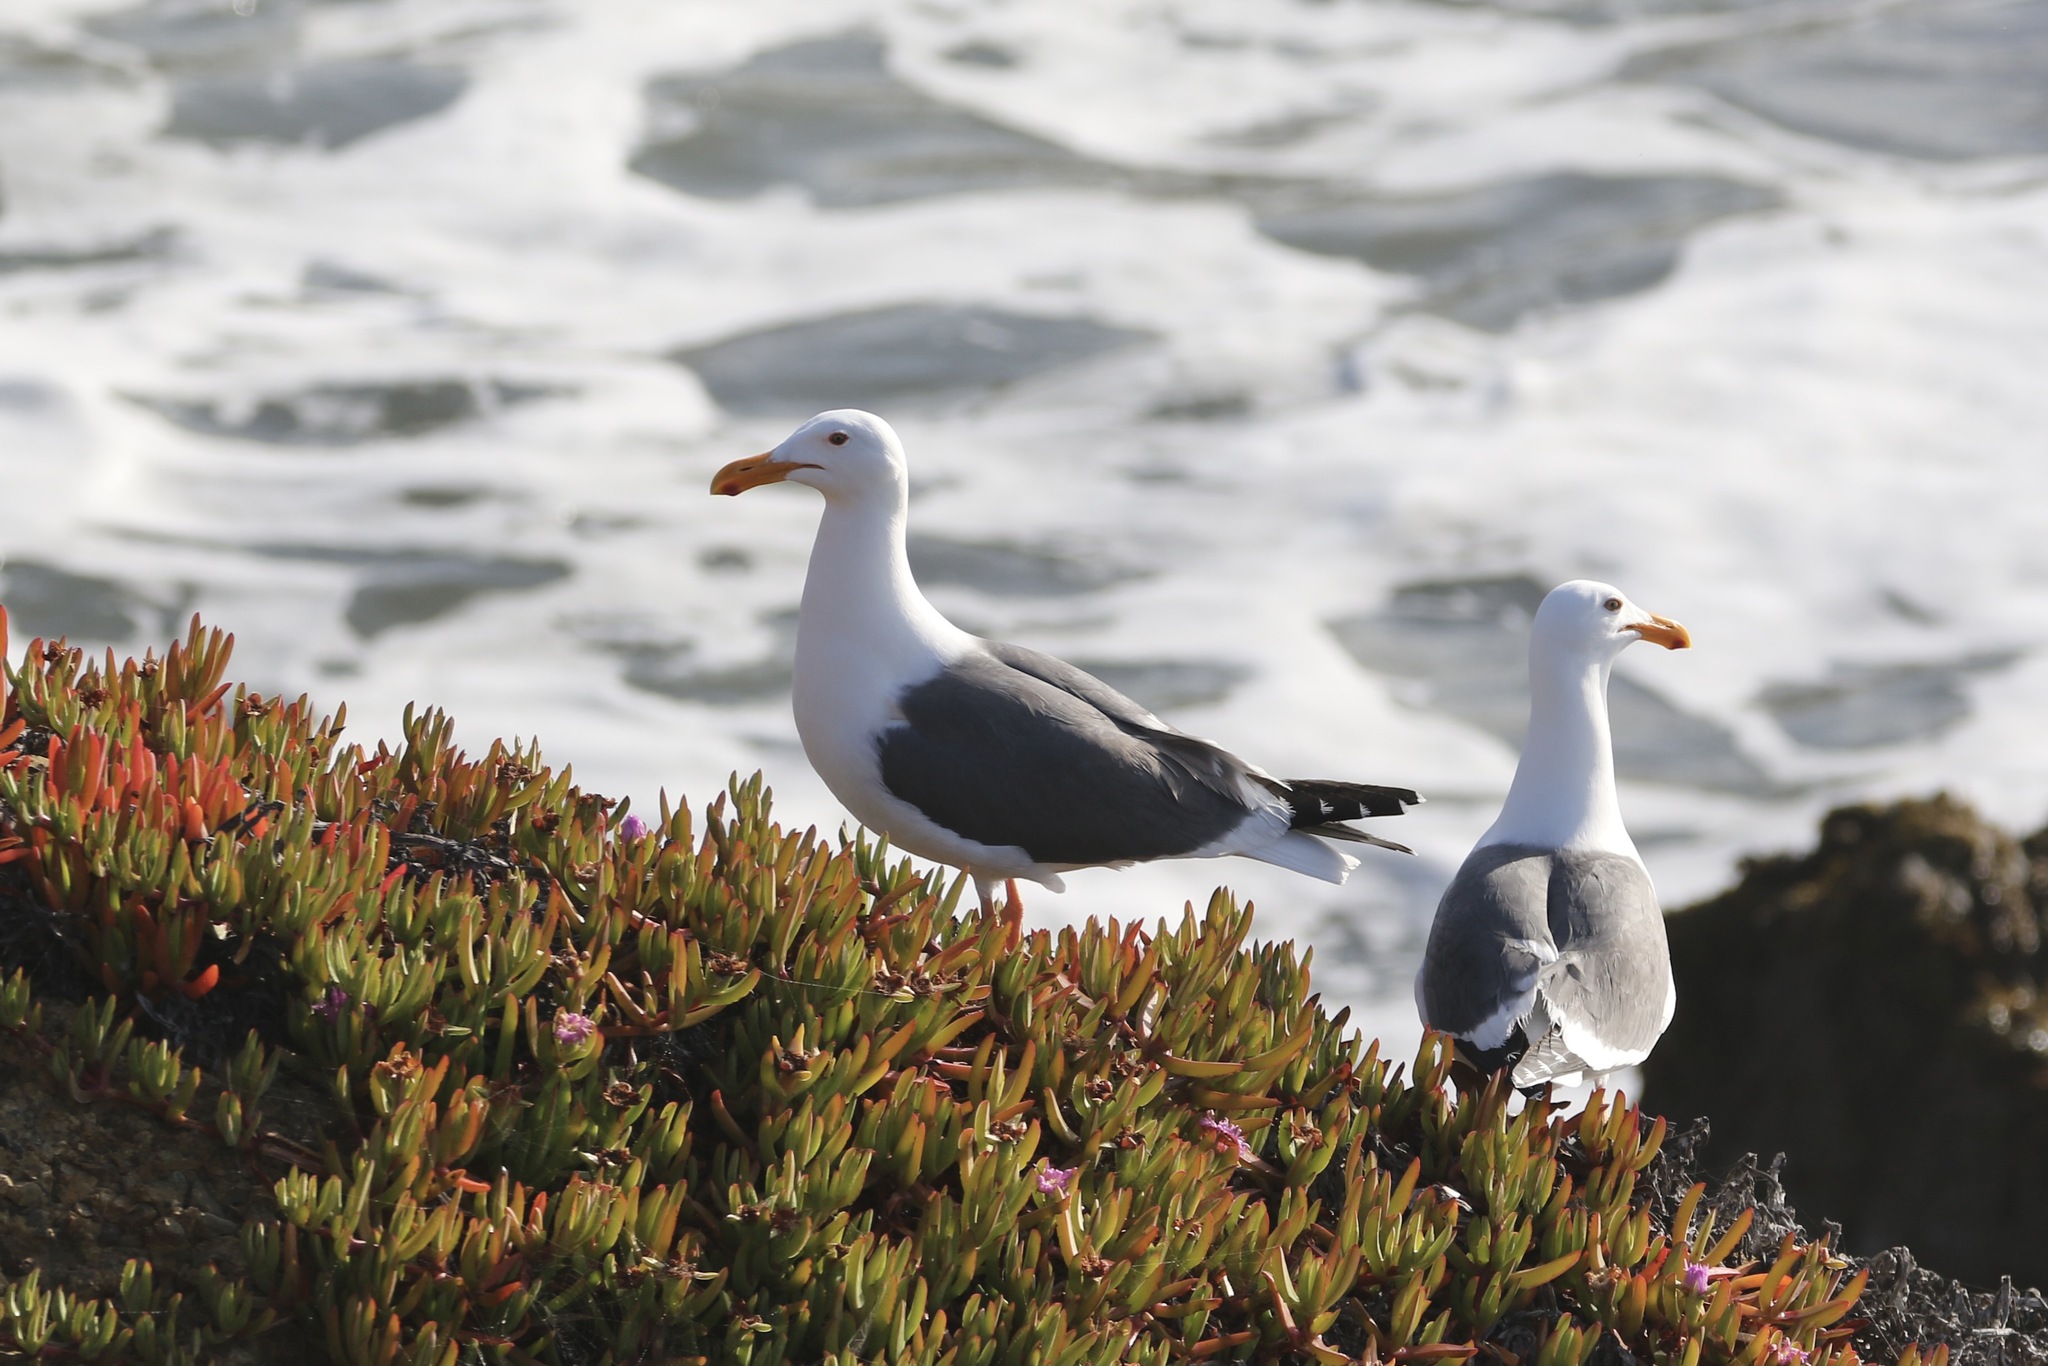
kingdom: Animalia
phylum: Chordata
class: Aves
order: Charadriiformes
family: Laridae
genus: Larus
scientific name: Larus occidentalis
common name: Western gull
